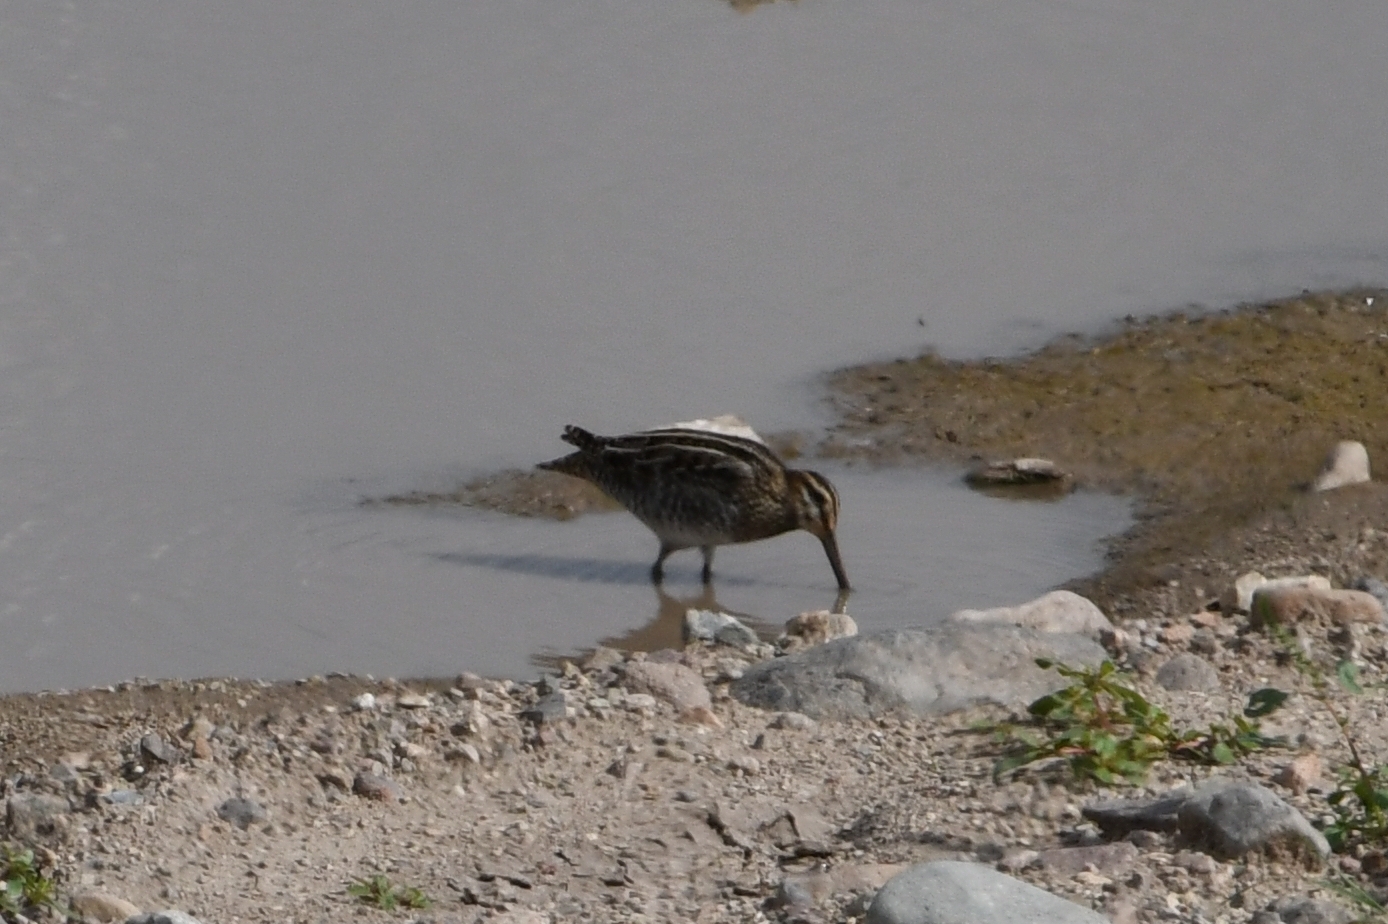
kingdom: Animalia
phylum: Chordata
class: Aves
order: Charadriiformes
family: Scolopacidae
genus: Gallinago
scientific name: Gallinago delicata
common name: Wilson's snipe
